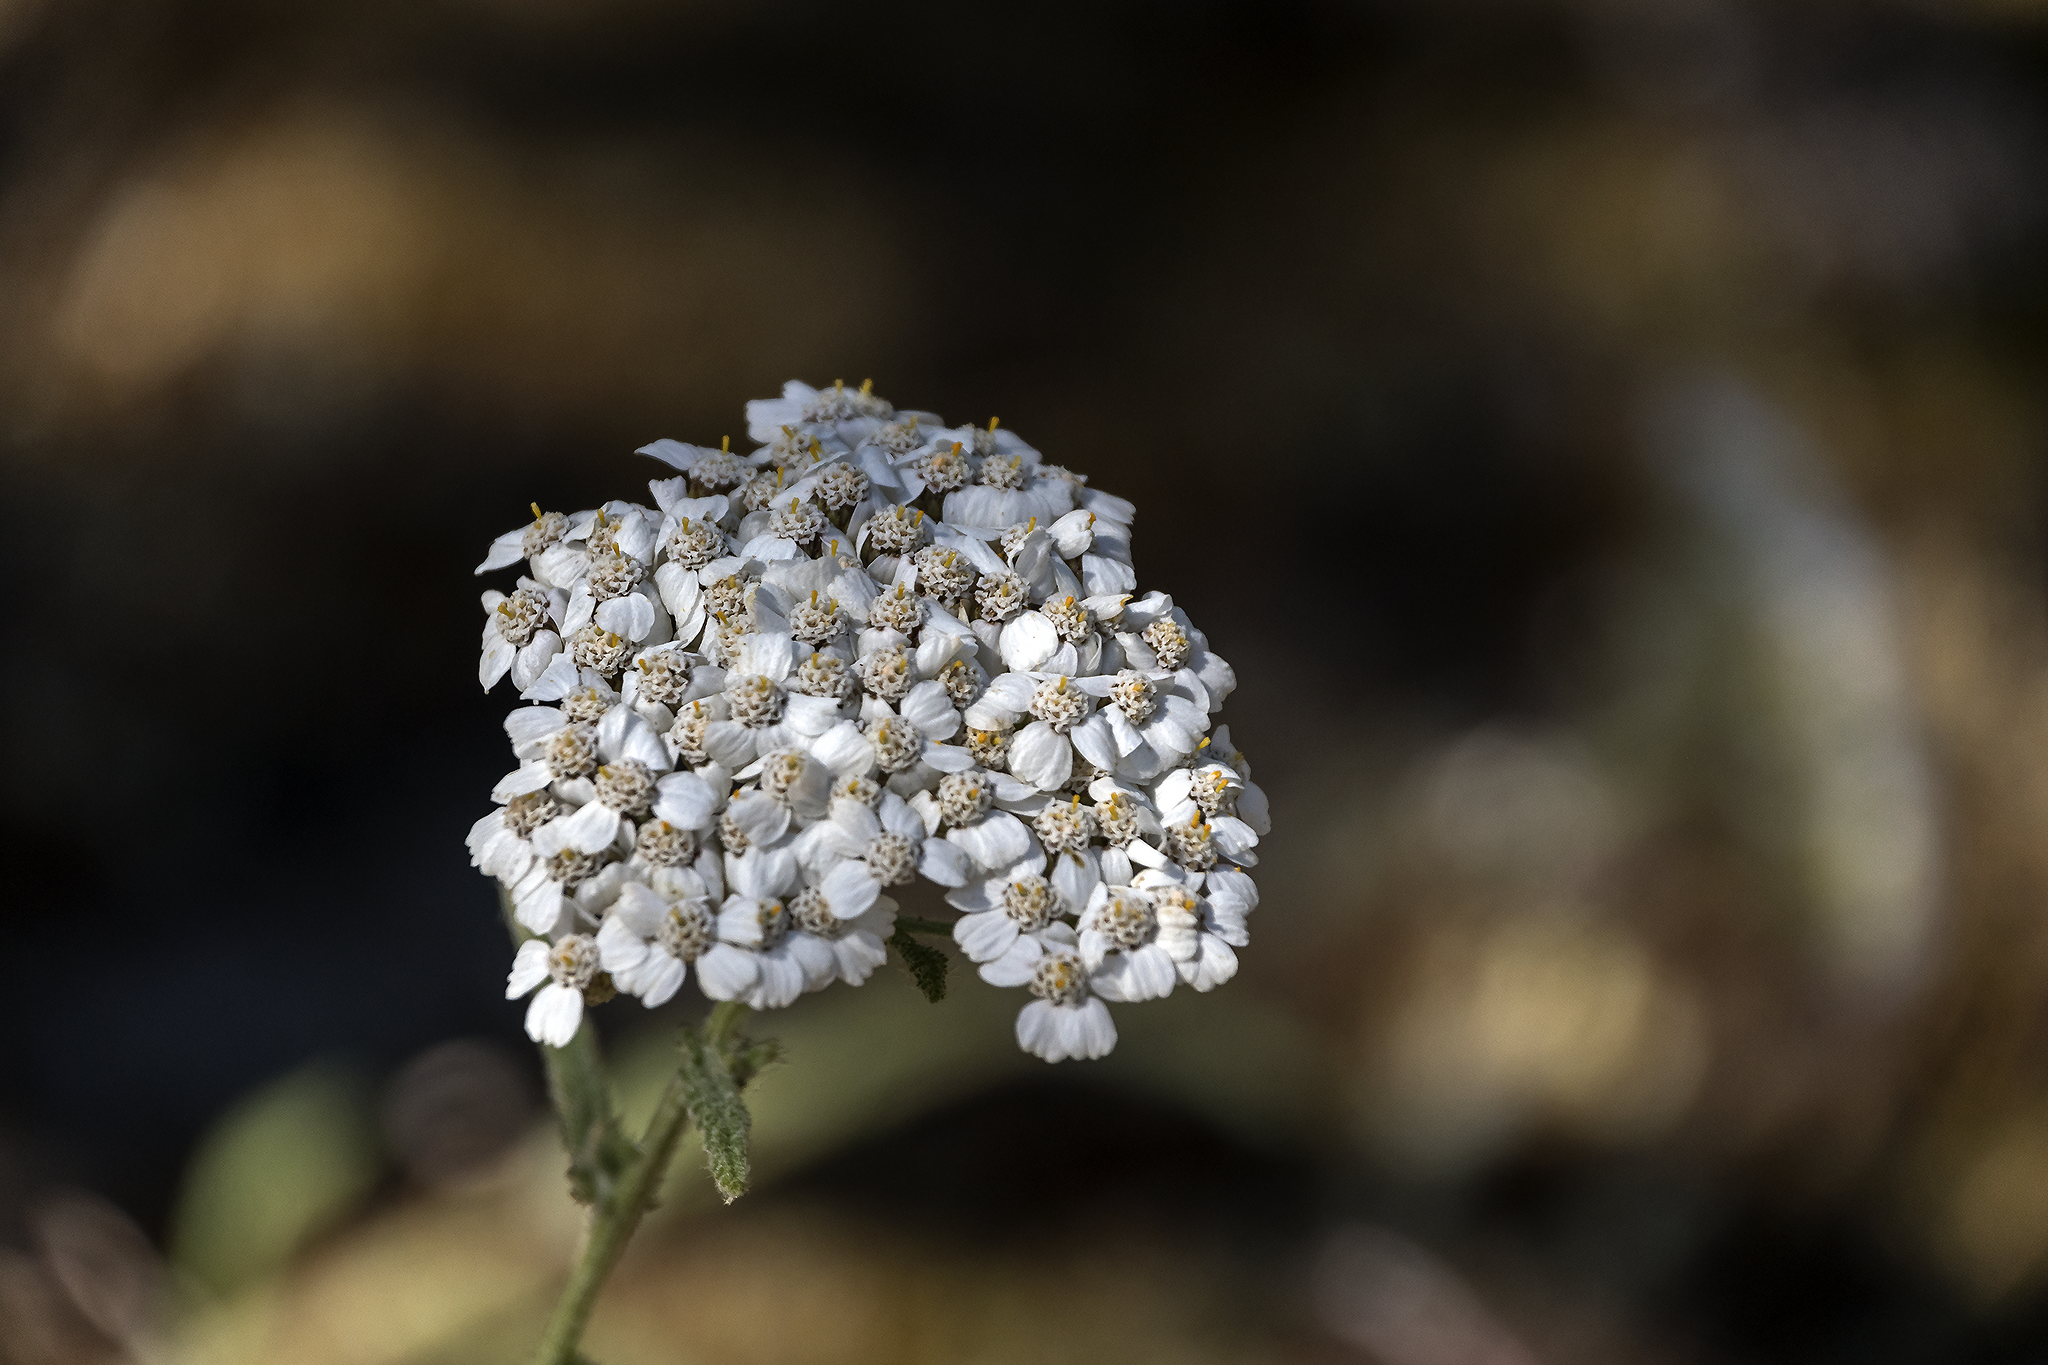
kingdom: Plantae
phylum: Tracheophyta
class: Magnoliopsida
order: Asterales
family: Asteraceae
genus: Achillea
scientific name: Achillea millefolium
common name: Yarrow
